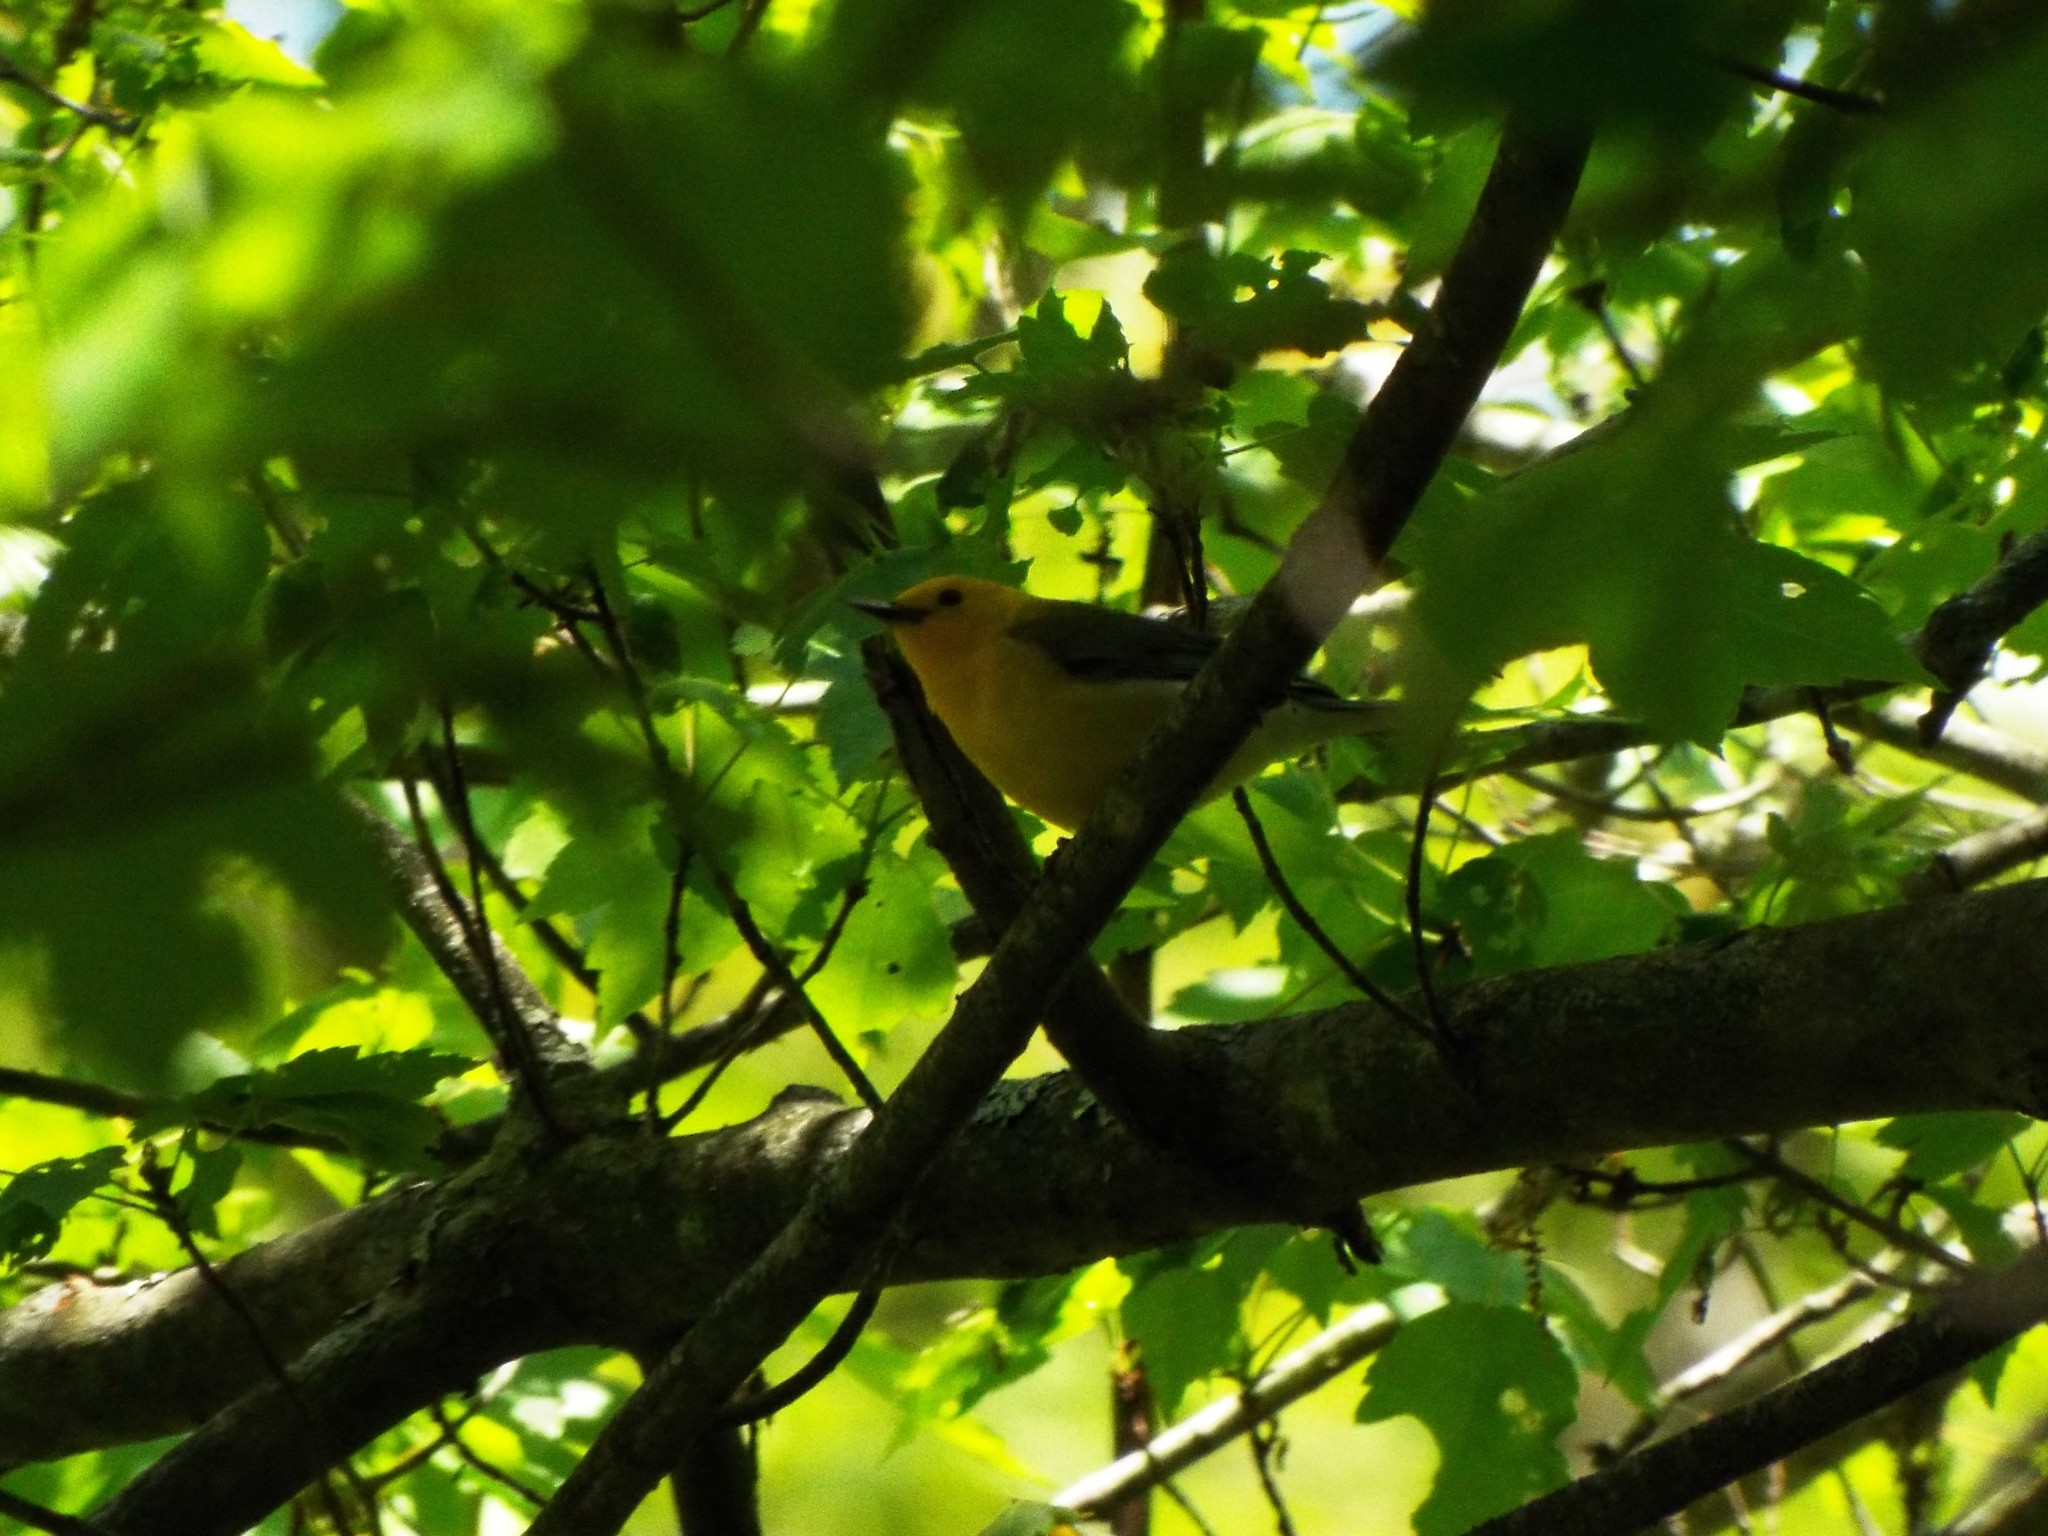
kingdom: Animalia
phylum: Chordata
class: Aves
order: Passeriformes
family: Parulidae
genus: Protonotaria
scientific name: Protonotaria citrea
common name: Prothonotary warbler
